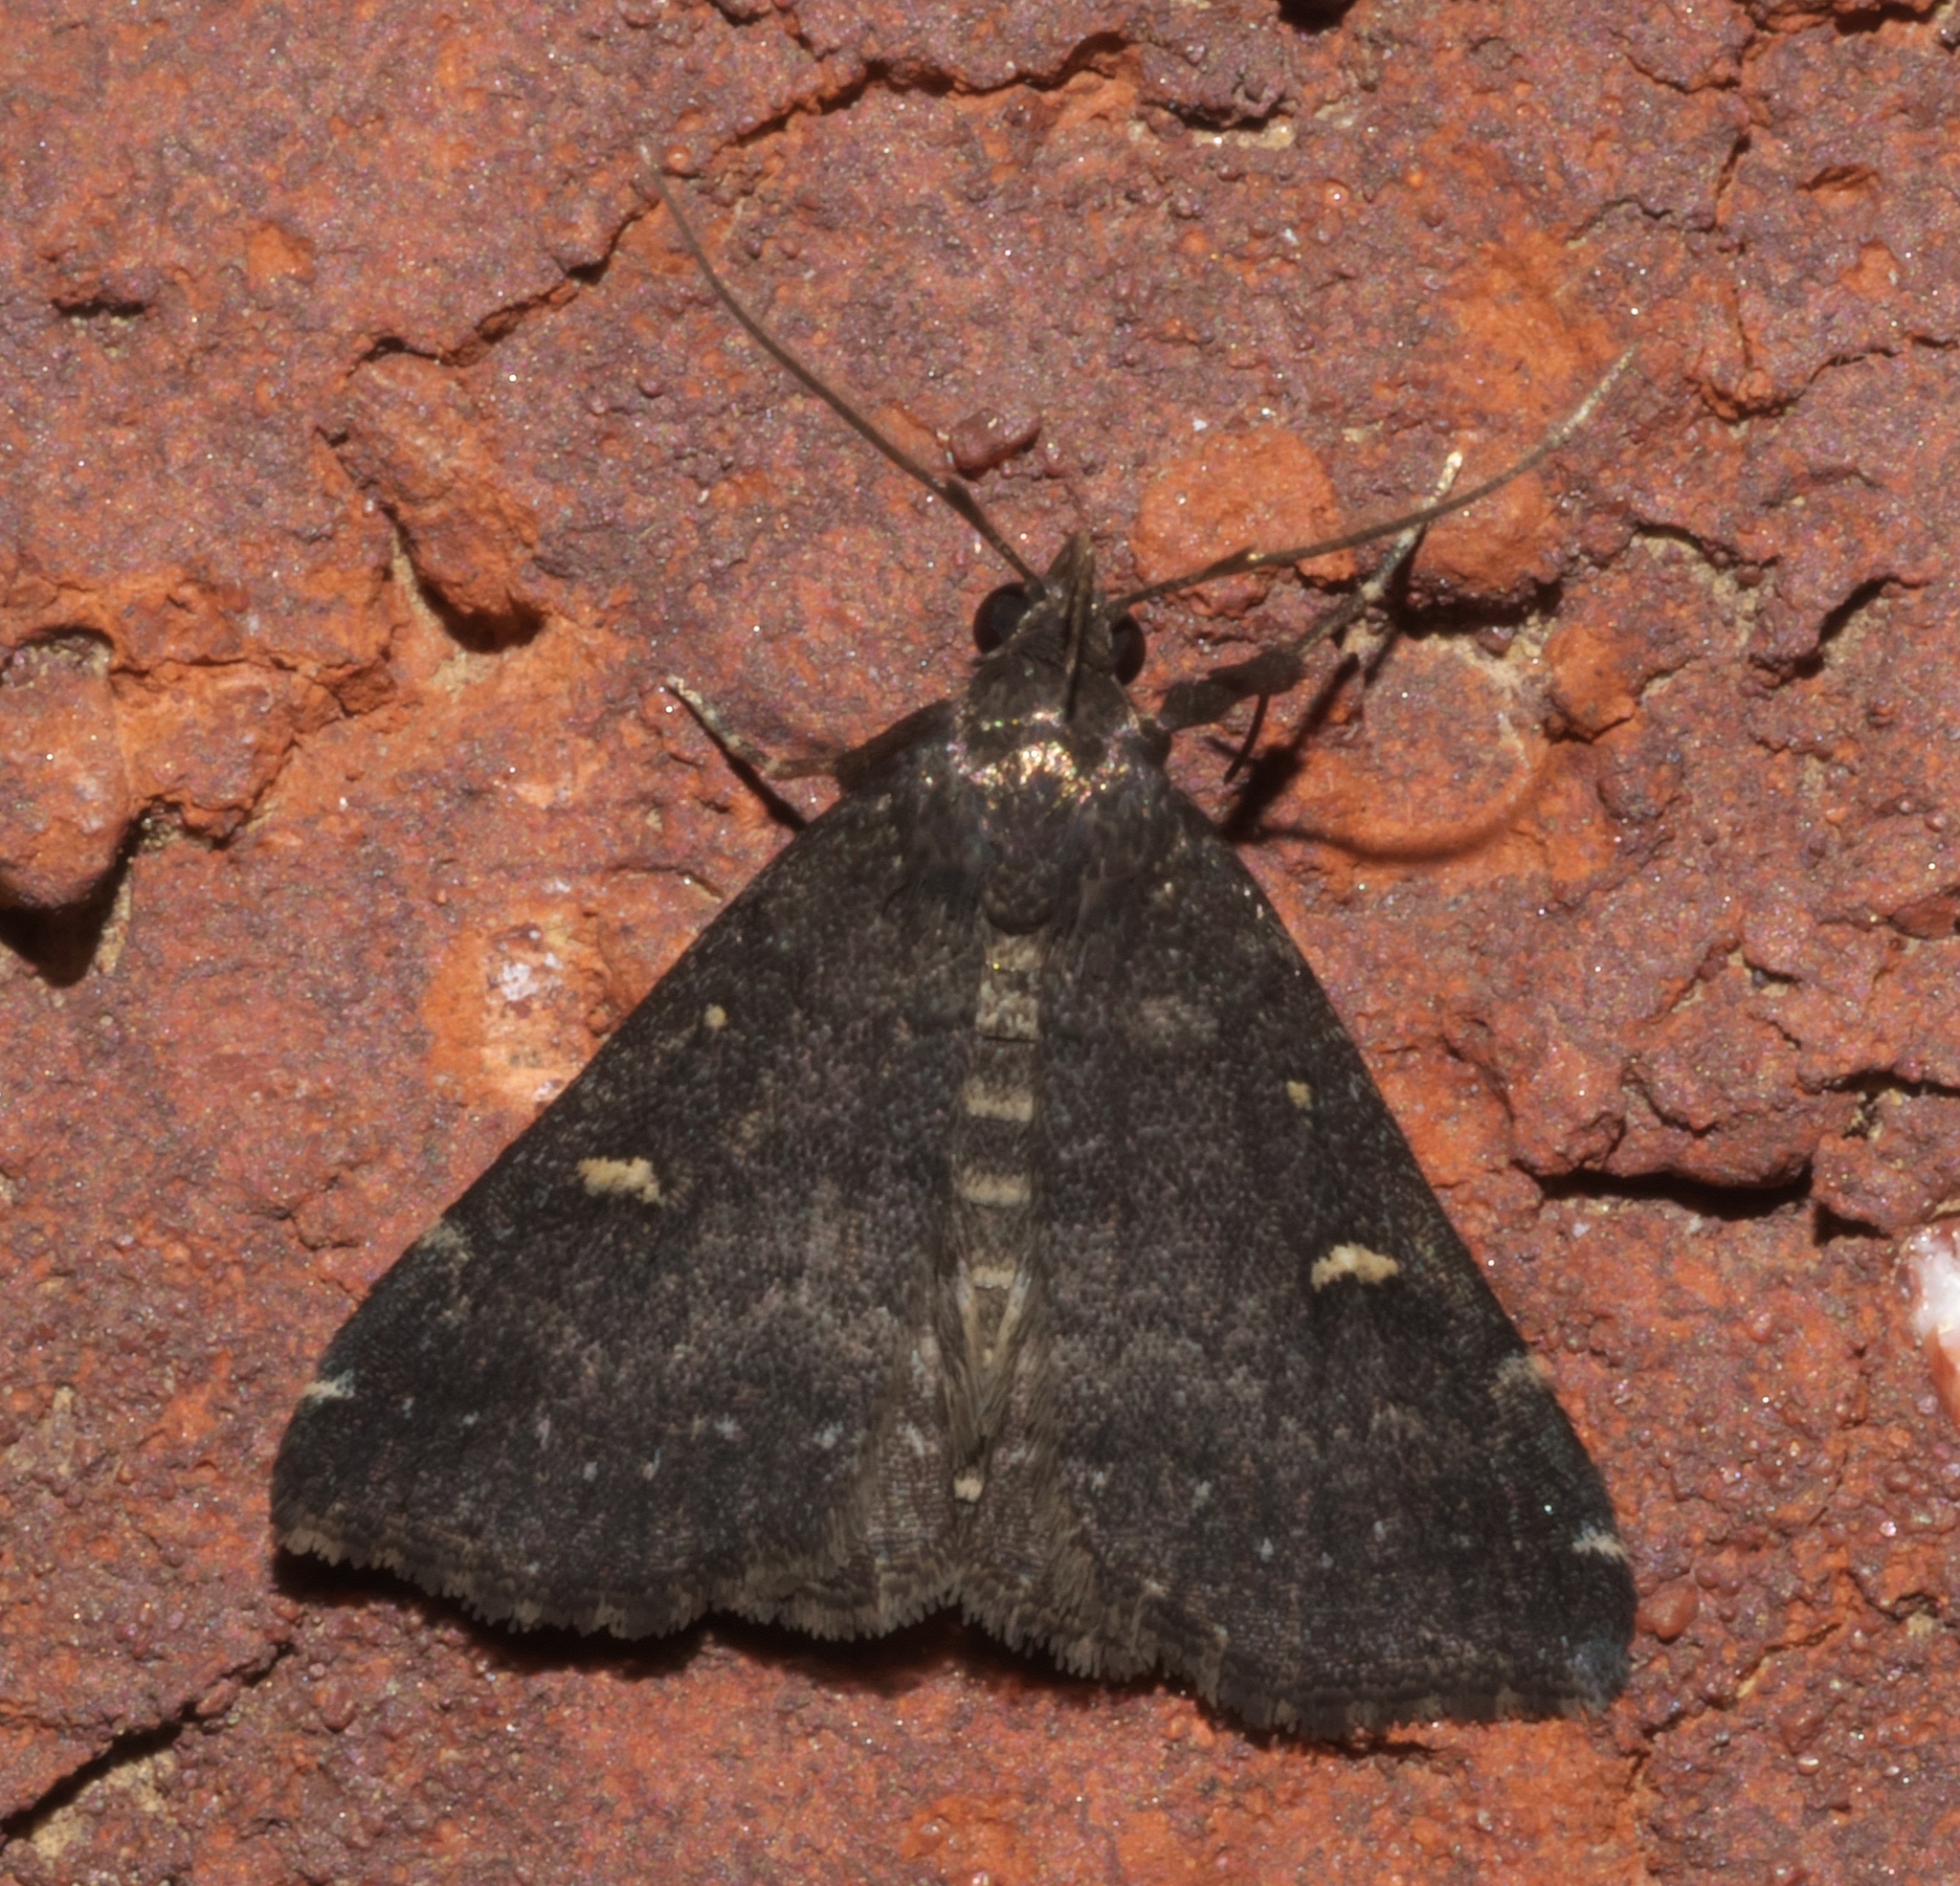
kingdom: Animalia
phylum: Arthropoda
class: Insecta
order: Lepidoptera
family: Erebidae
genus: Tetanolita
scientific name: Tetanolita mynesalis
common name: Smoky tetanolita moth
